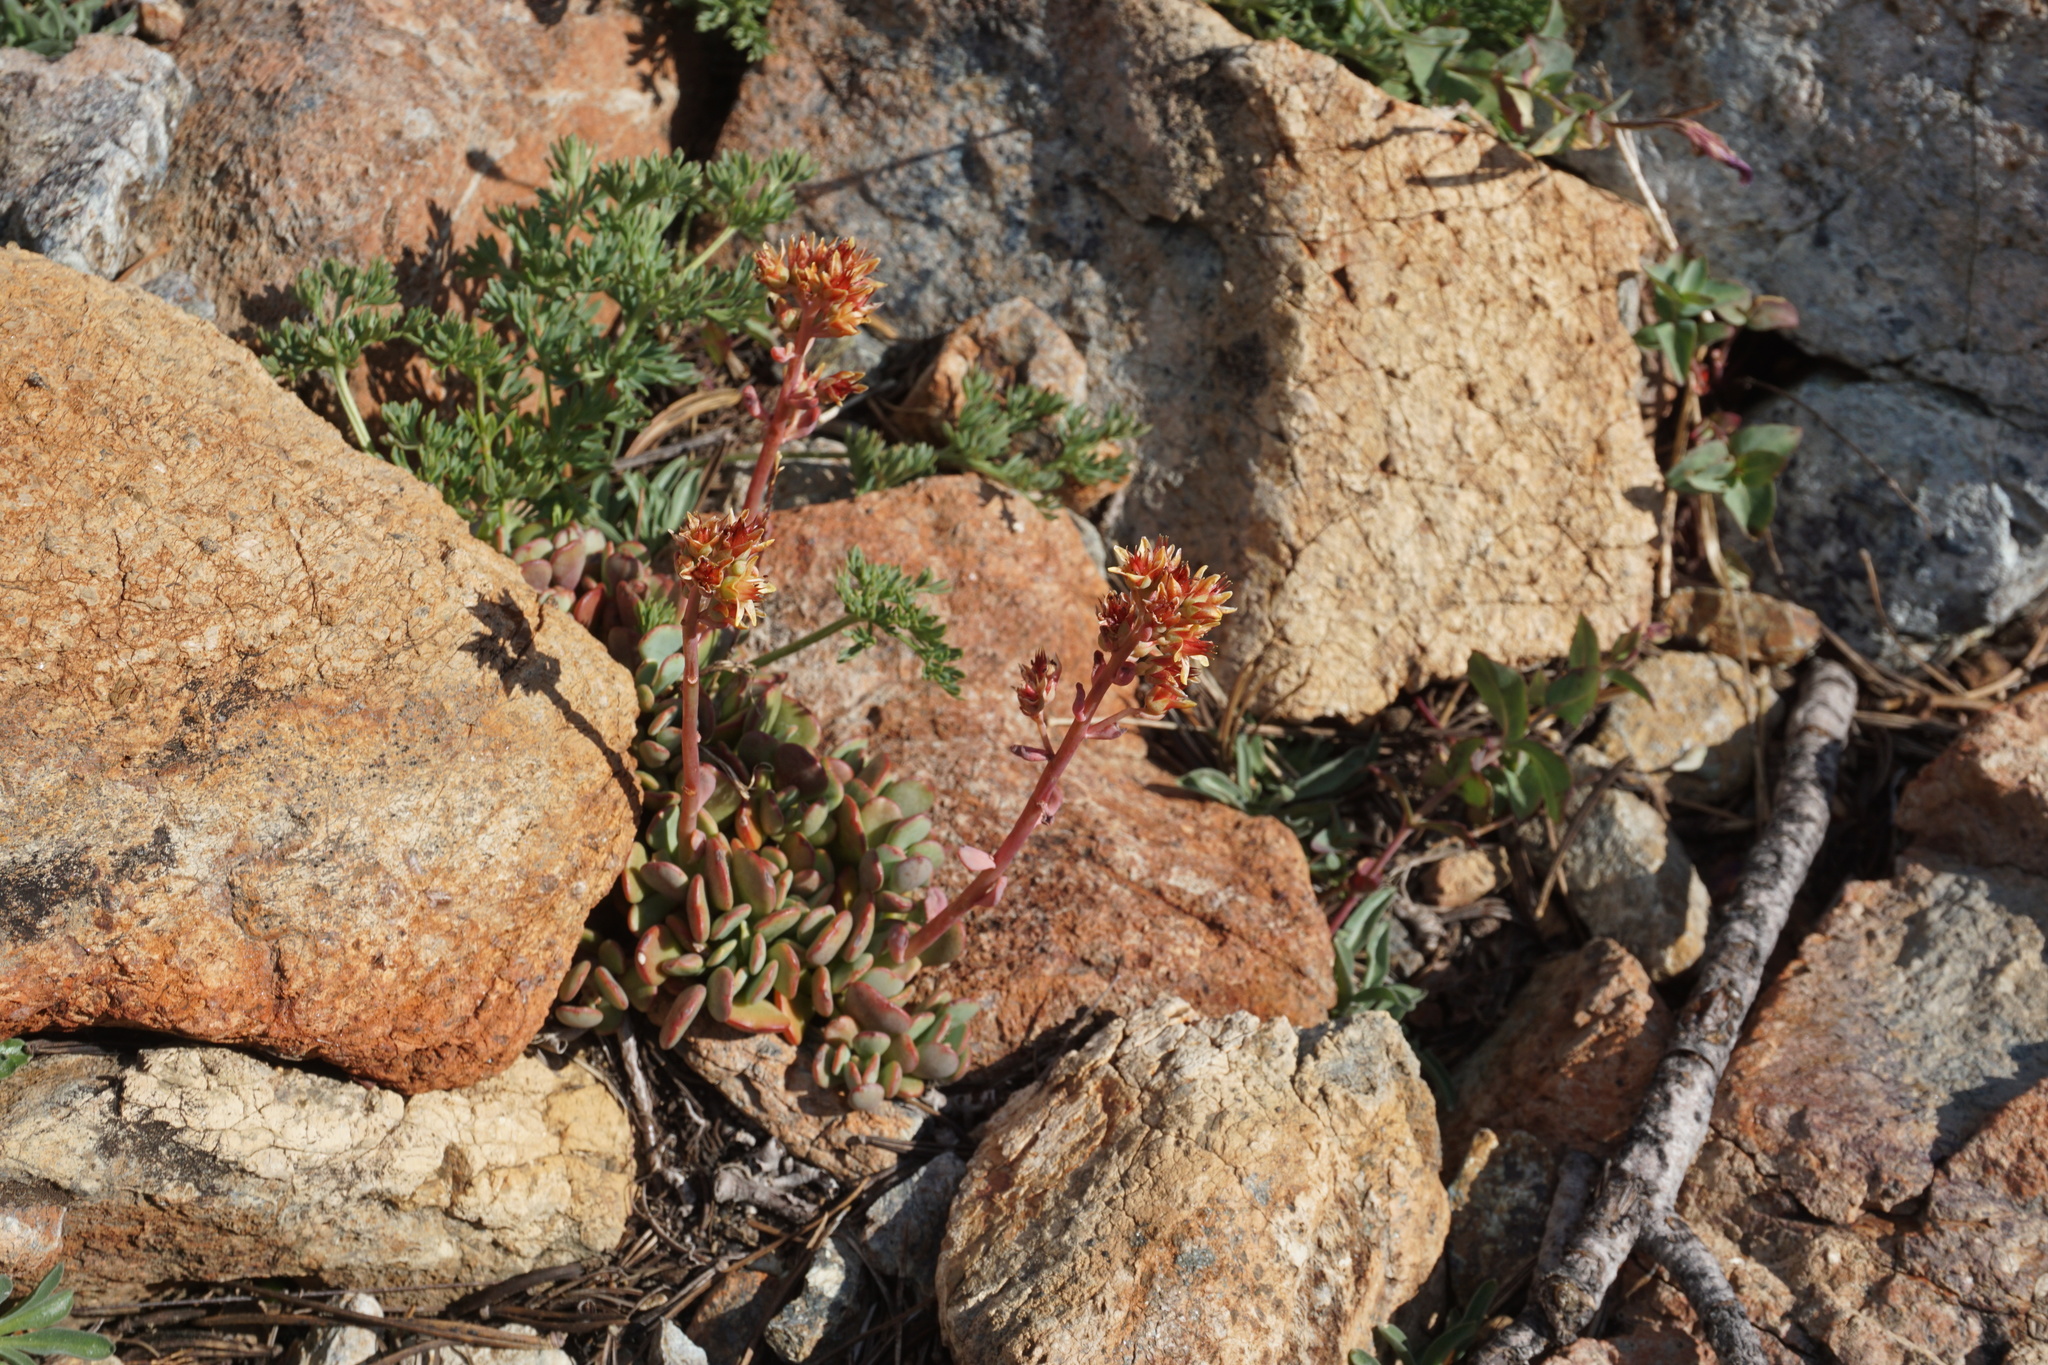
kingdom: Plantae
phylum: Tracheophyta
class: Magnoliopsida
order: Saxifragales
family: Crassulaceae
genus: Sedum
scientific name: Sedum obtusatum
